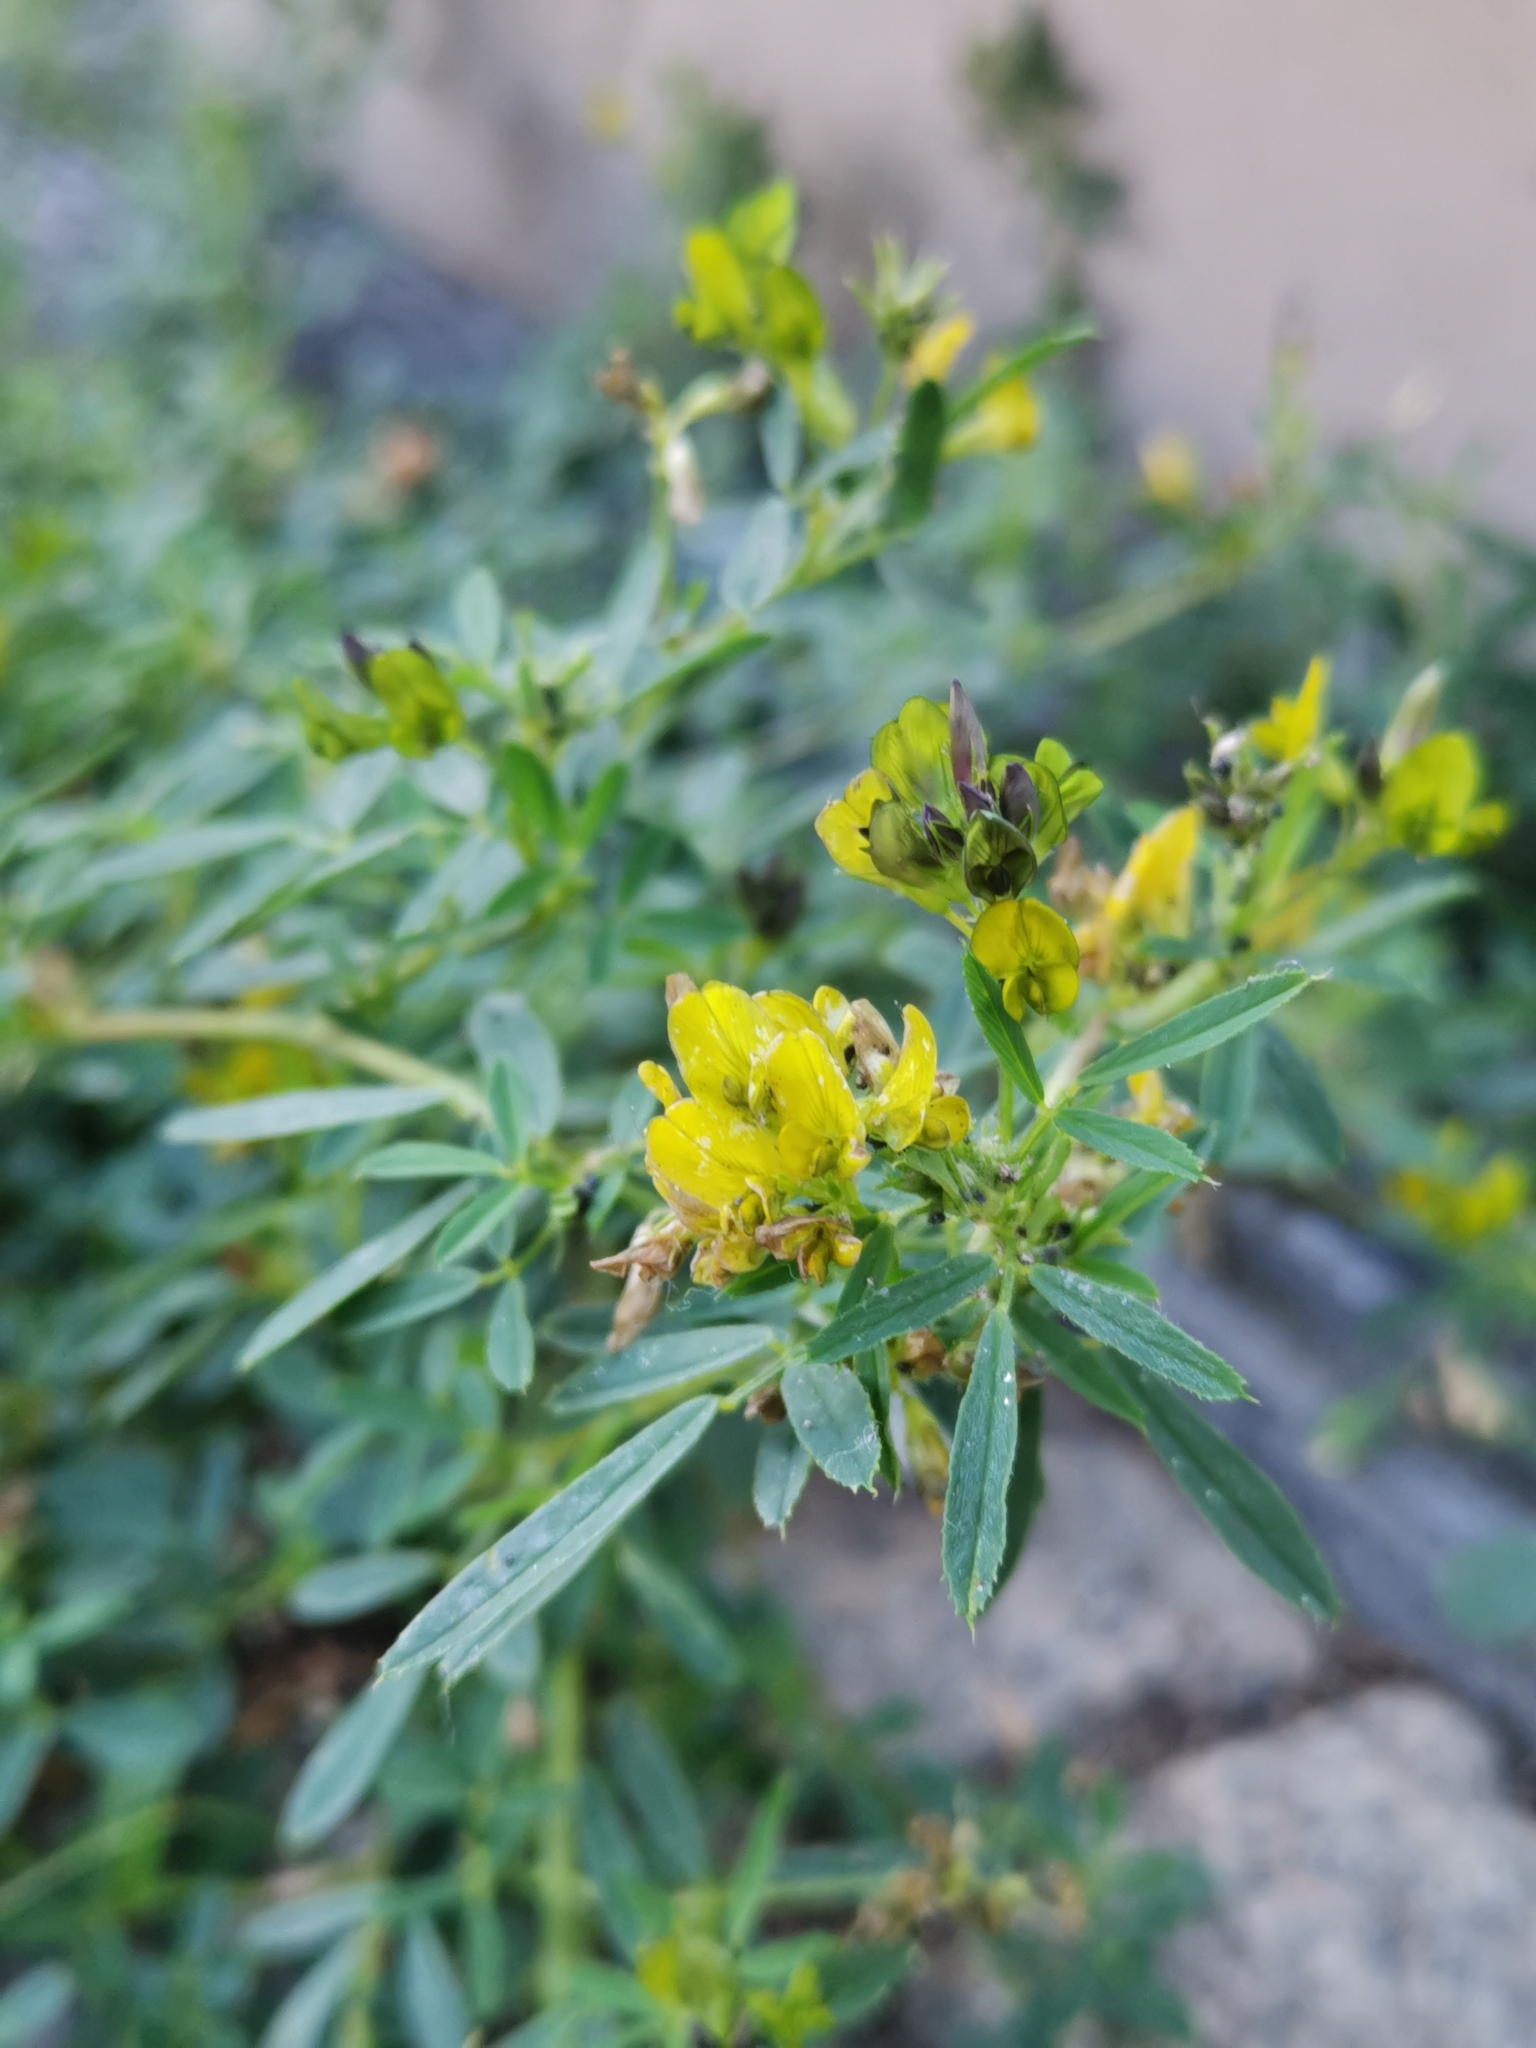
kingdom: Plantae
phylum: Tracheophyta
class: Magnoliopsida
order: Fabales
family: Fabaceae
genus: Medicago
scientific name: Medicago falcata
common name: Sickle medick
